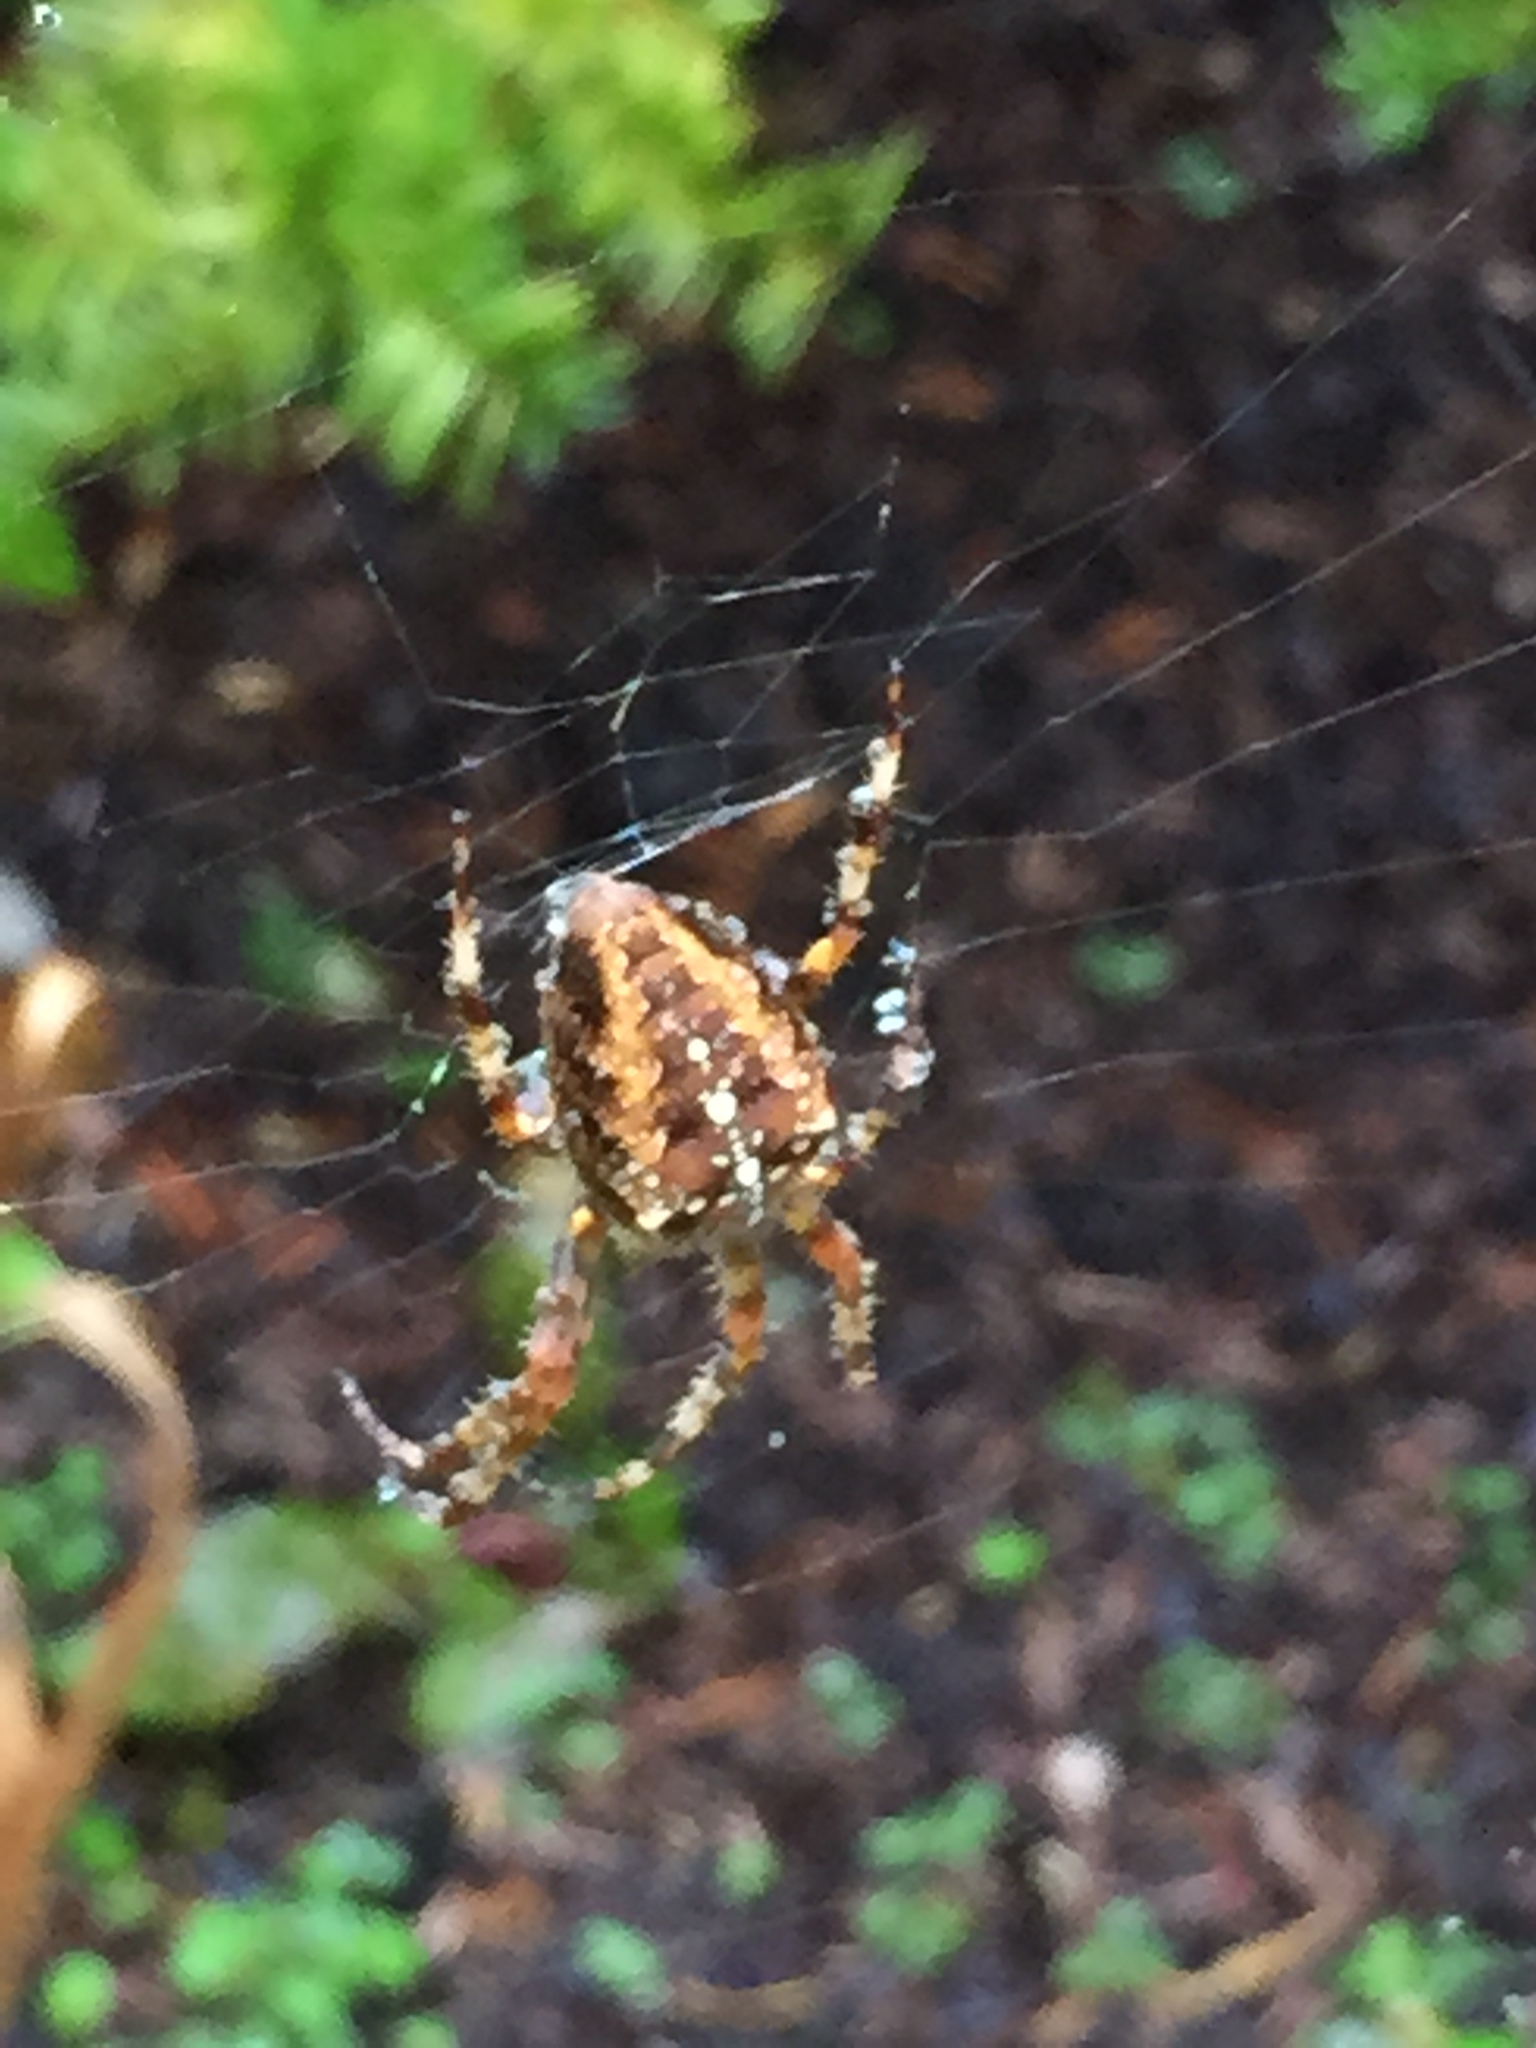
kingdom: Animalia
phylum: Arthropoda
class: Arachnida
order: Araneae
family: Araneidae
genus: Araneus
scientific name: Araneus diadematus
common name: Cross orbweaver
